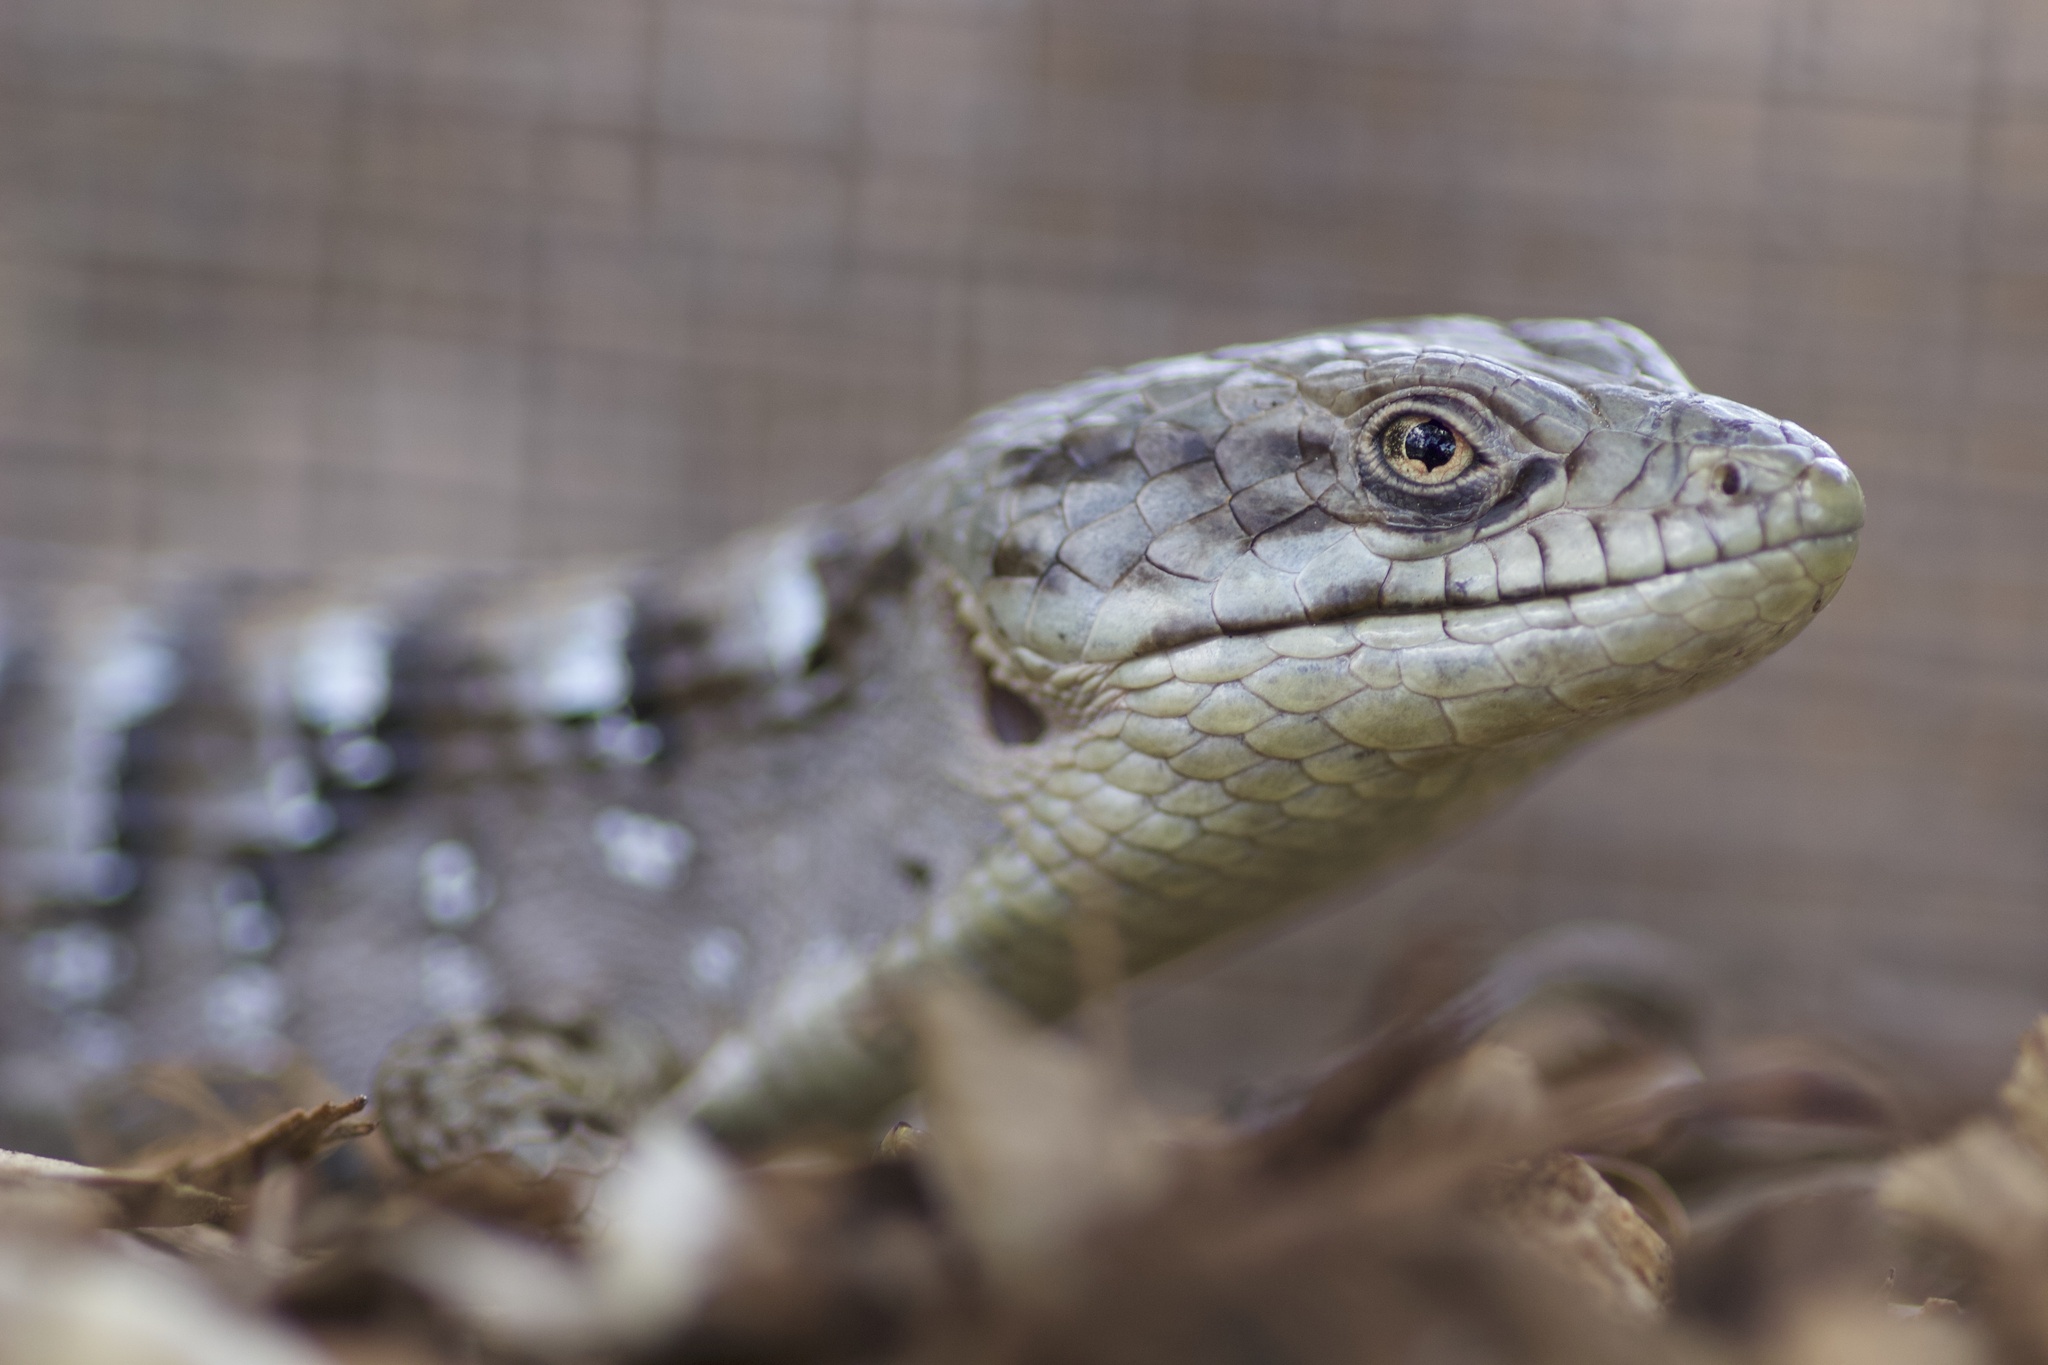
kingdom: Animalia
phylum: Chordata
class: Squamata
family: Anguidae
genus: Elgaria
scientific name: Elgaria multicarinata
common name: Southern alligator lizard
